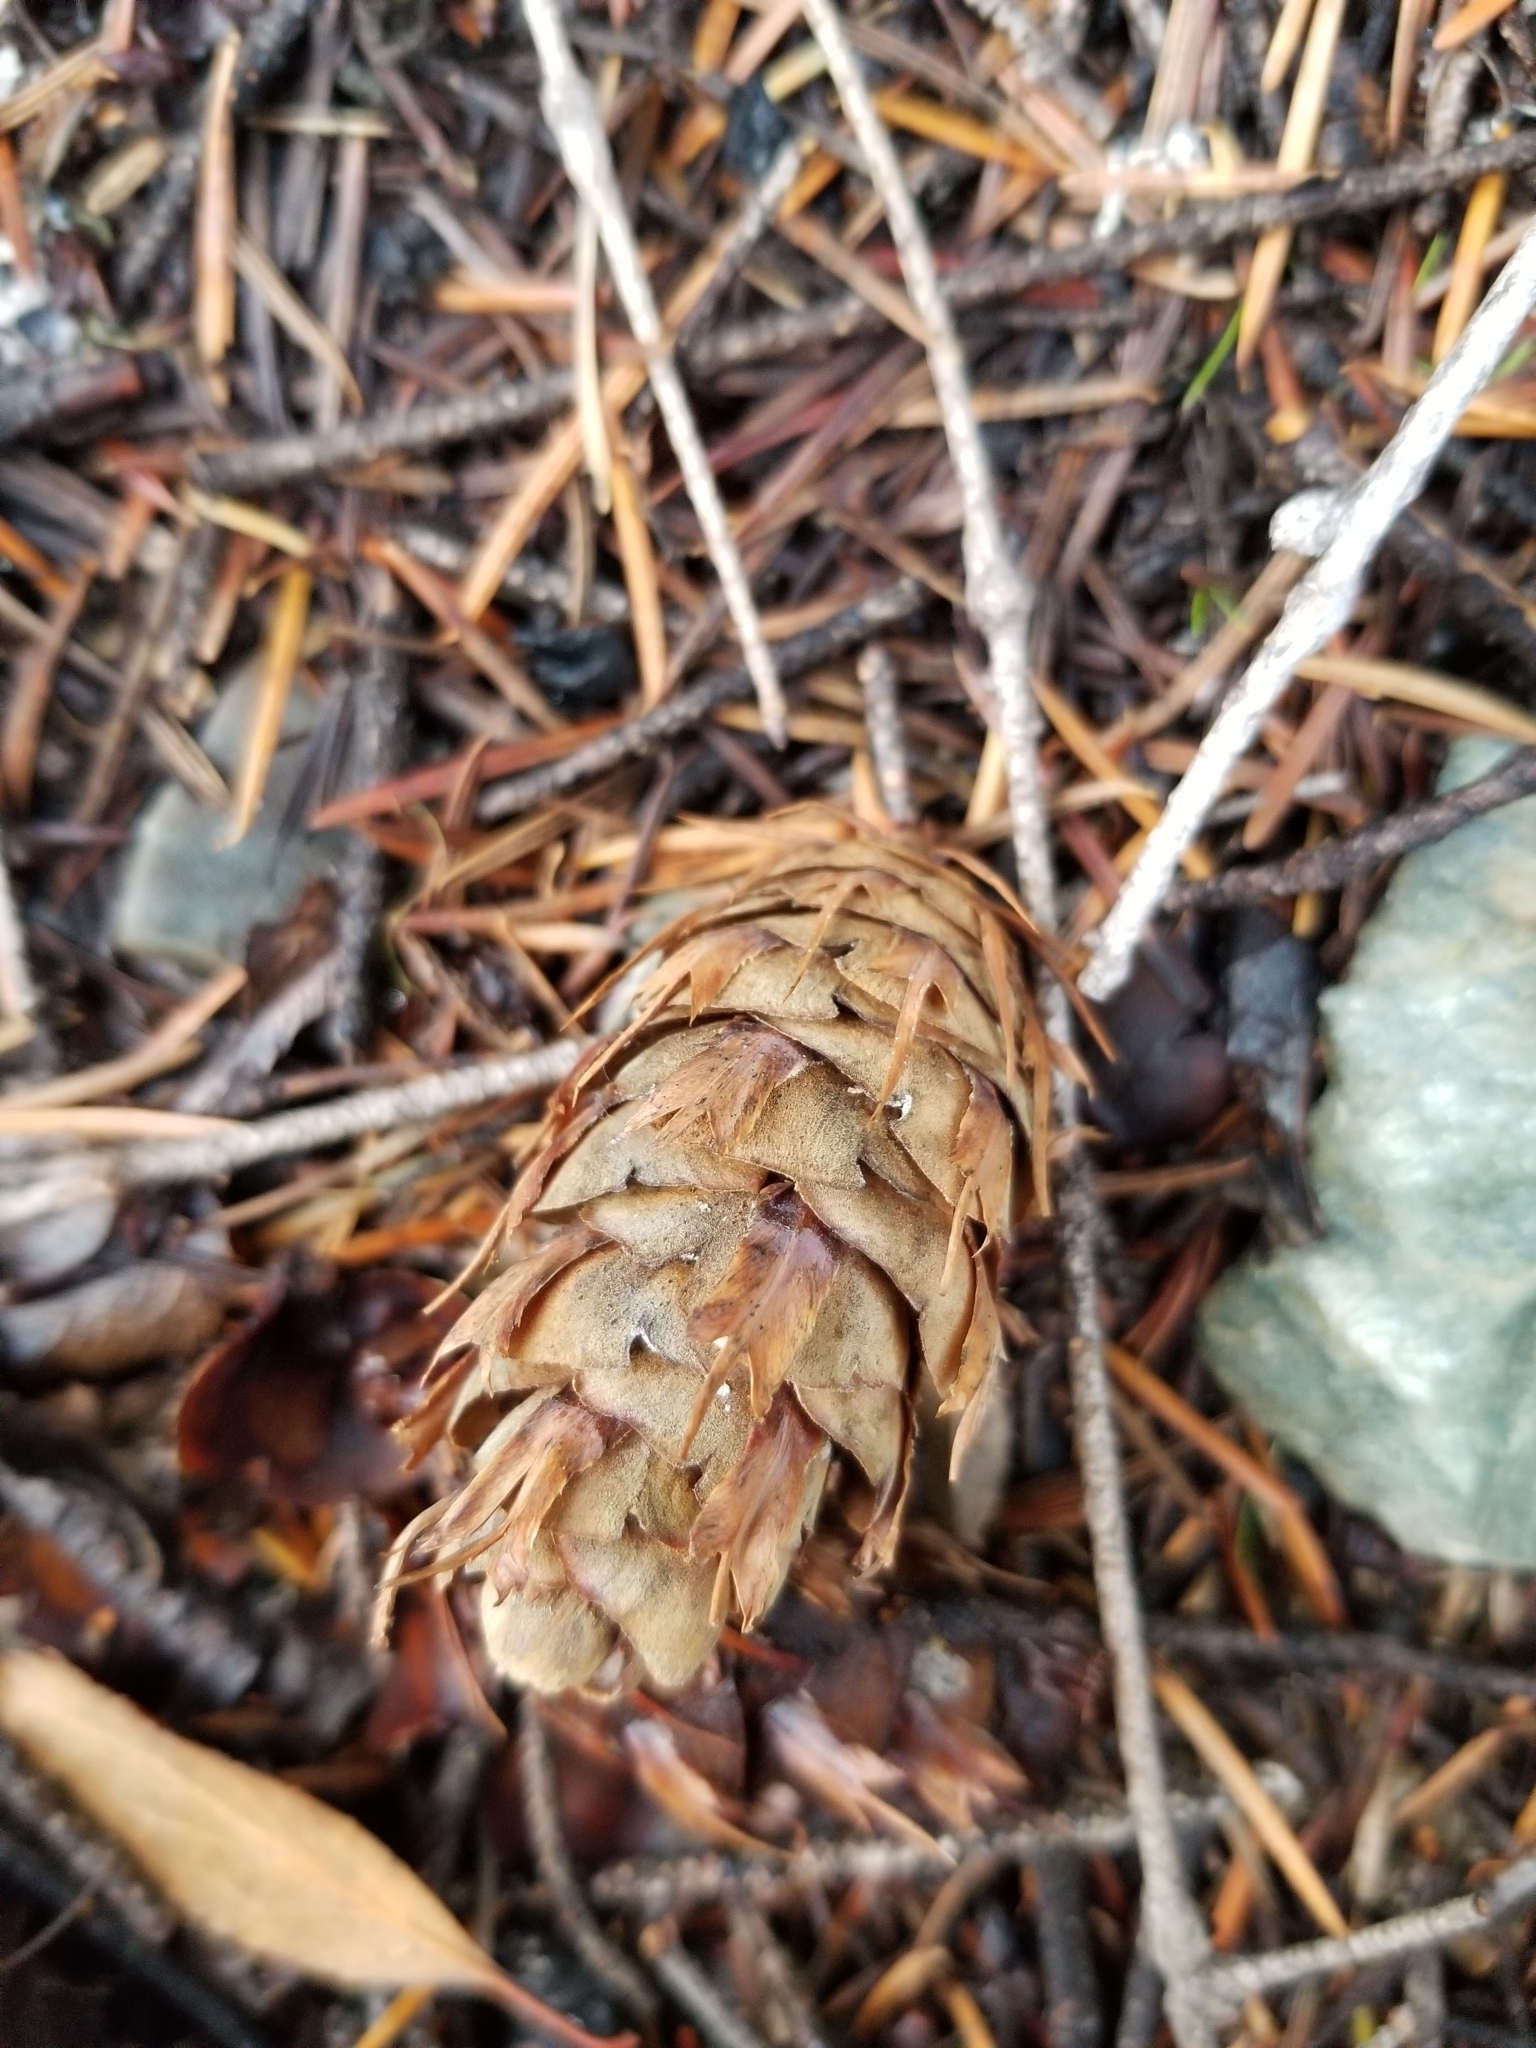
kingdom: Plantae
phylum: Tracheophyta
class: Pinopsida
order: Pinales
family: Pinaceae
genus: Pseudotsuga
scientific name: Pseudotsuga menziesii
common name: Douglas fir
